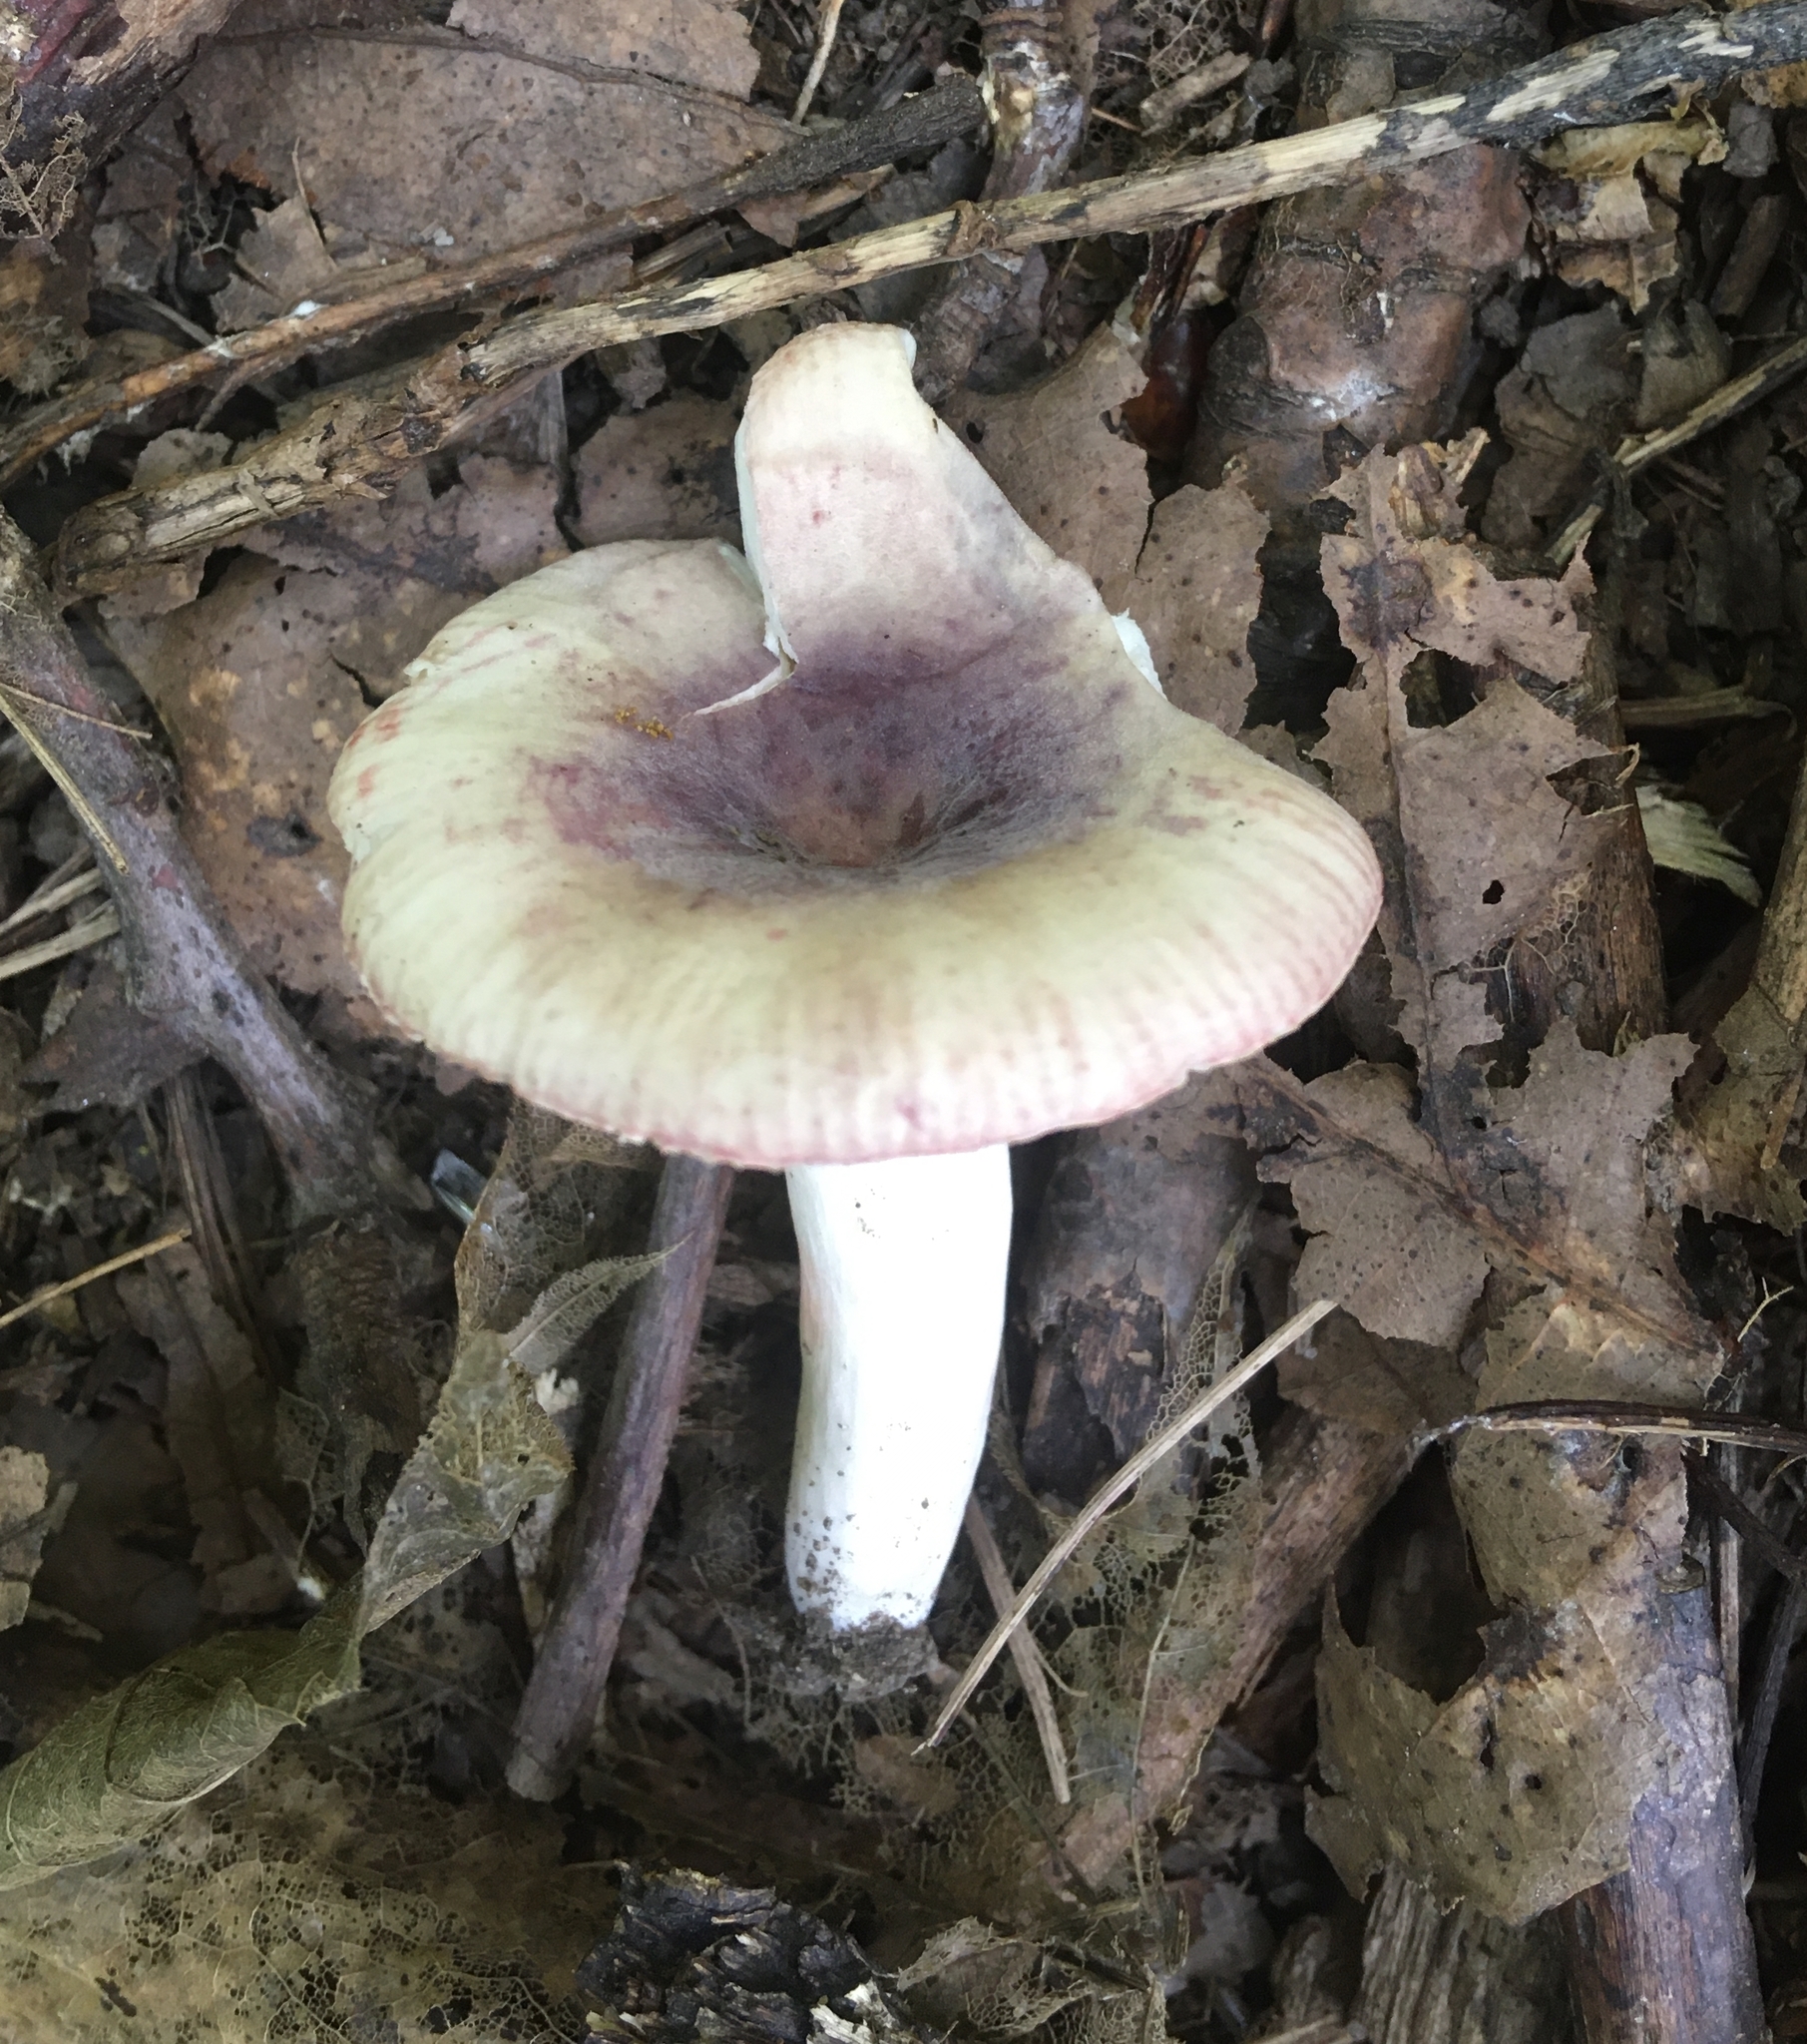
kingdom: Fungi
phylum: Basidiomycota
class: Agaricomycetes
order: Russulales
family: Russulaceae
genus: Russula
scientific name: Russula mariae
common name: Purple-bloom russula
